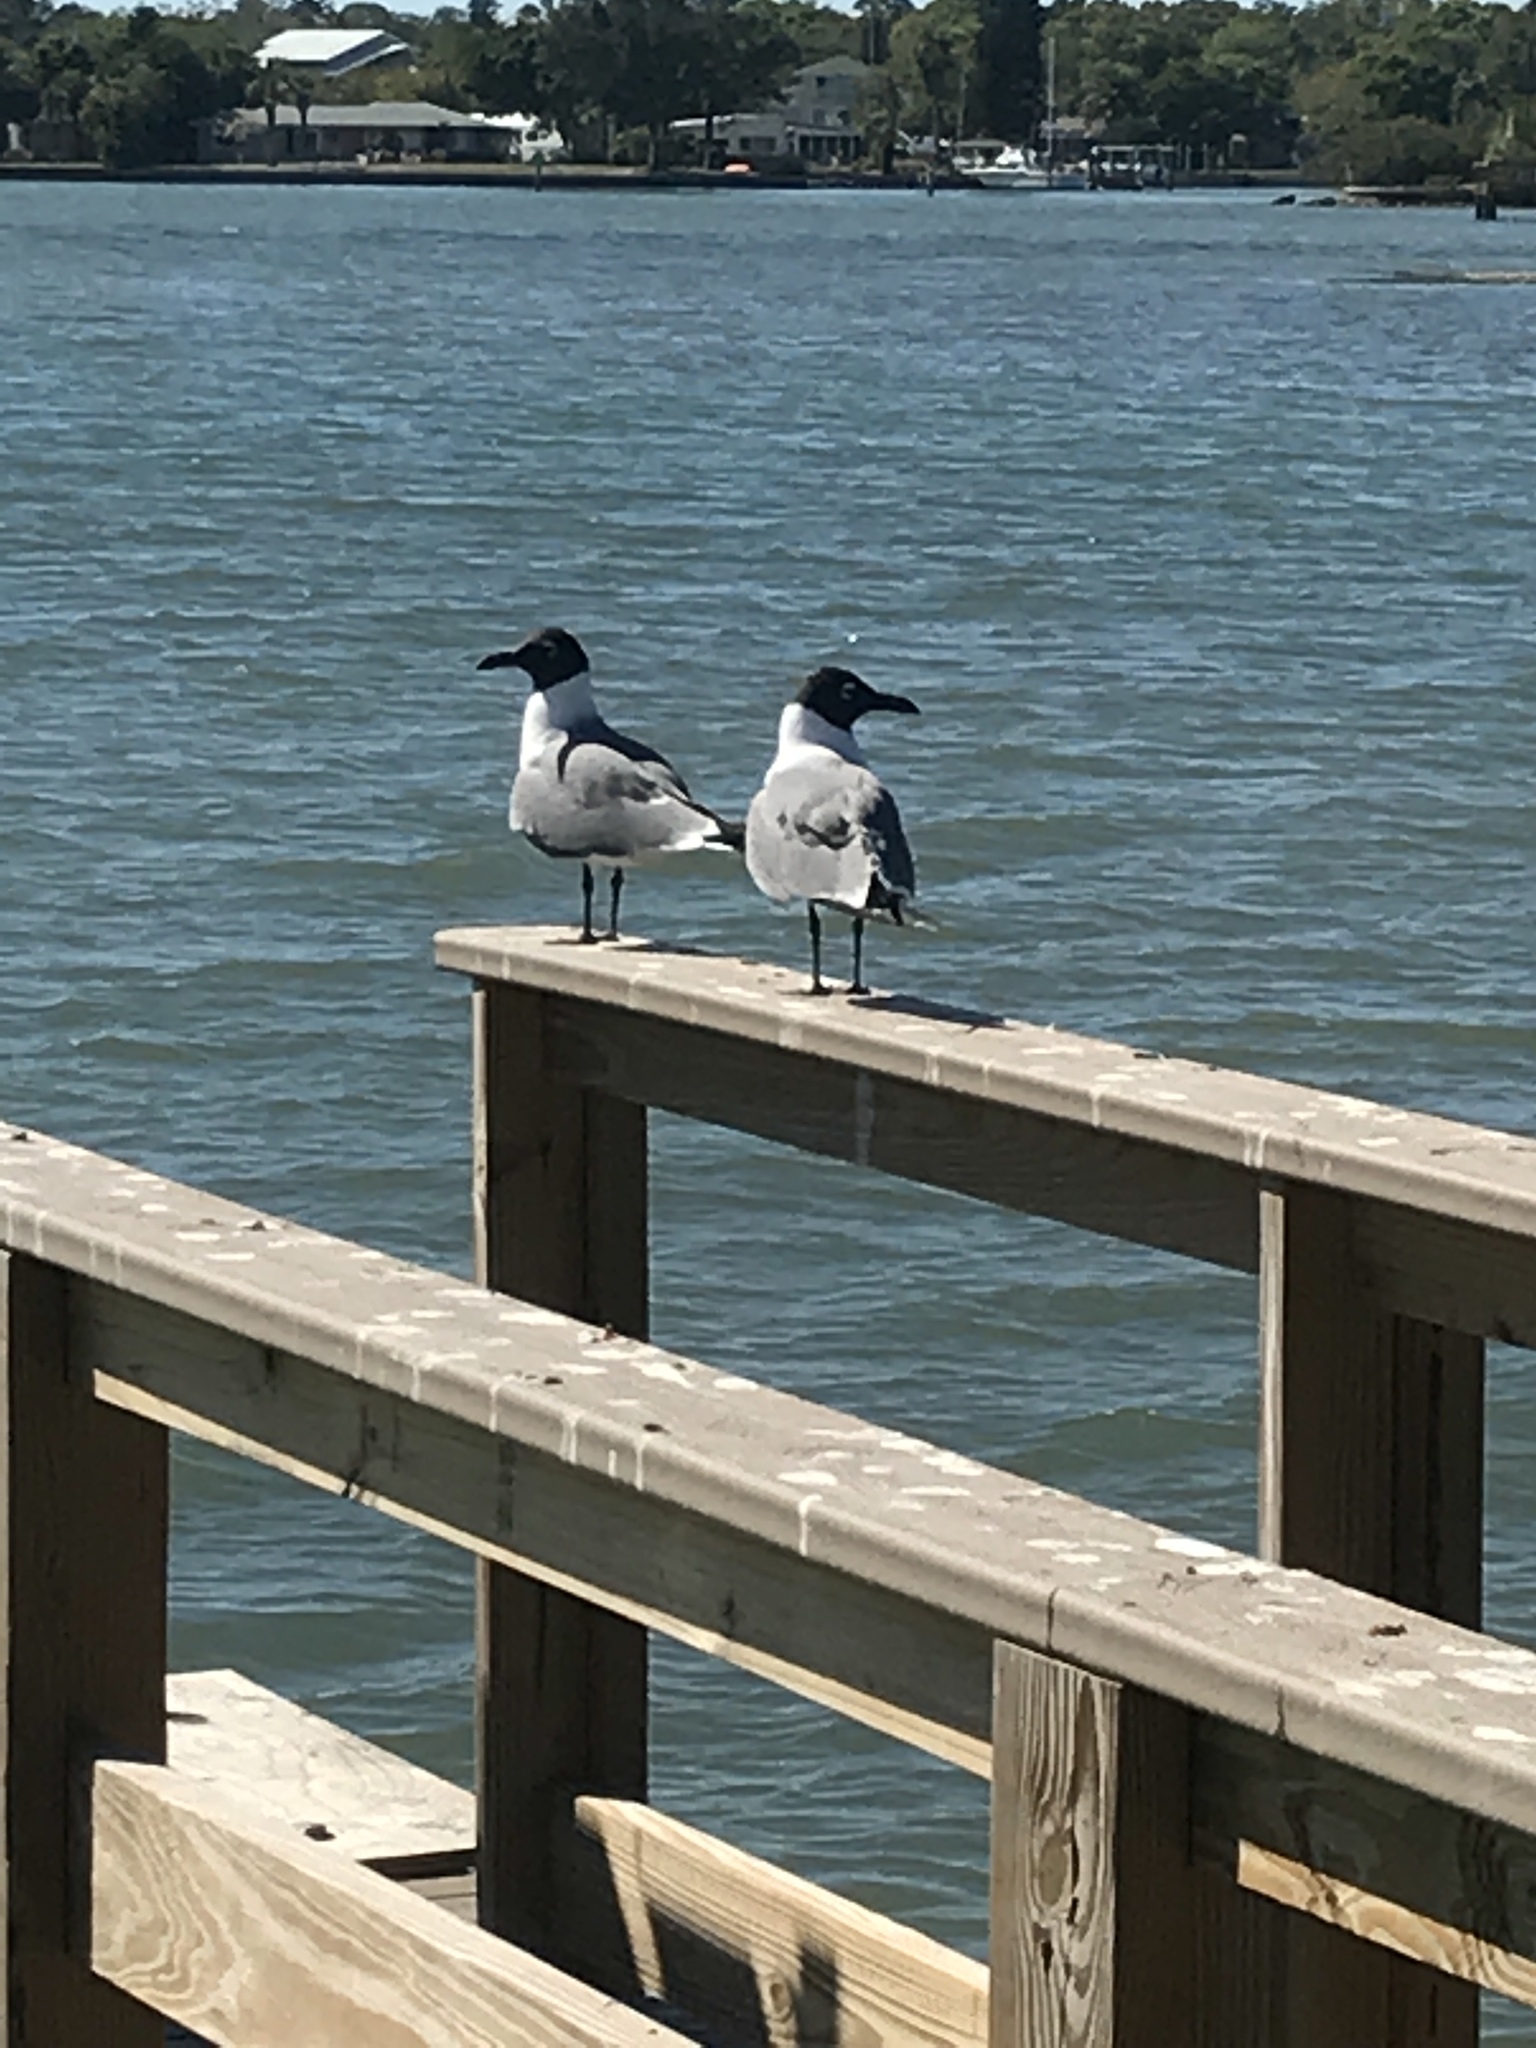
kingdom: Animalia
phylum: Chordata
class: Aves
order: Charadriiformes
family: Laridae
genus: Leucophaeus
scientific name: Leucophaeus atricilla
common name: Laughing gull
